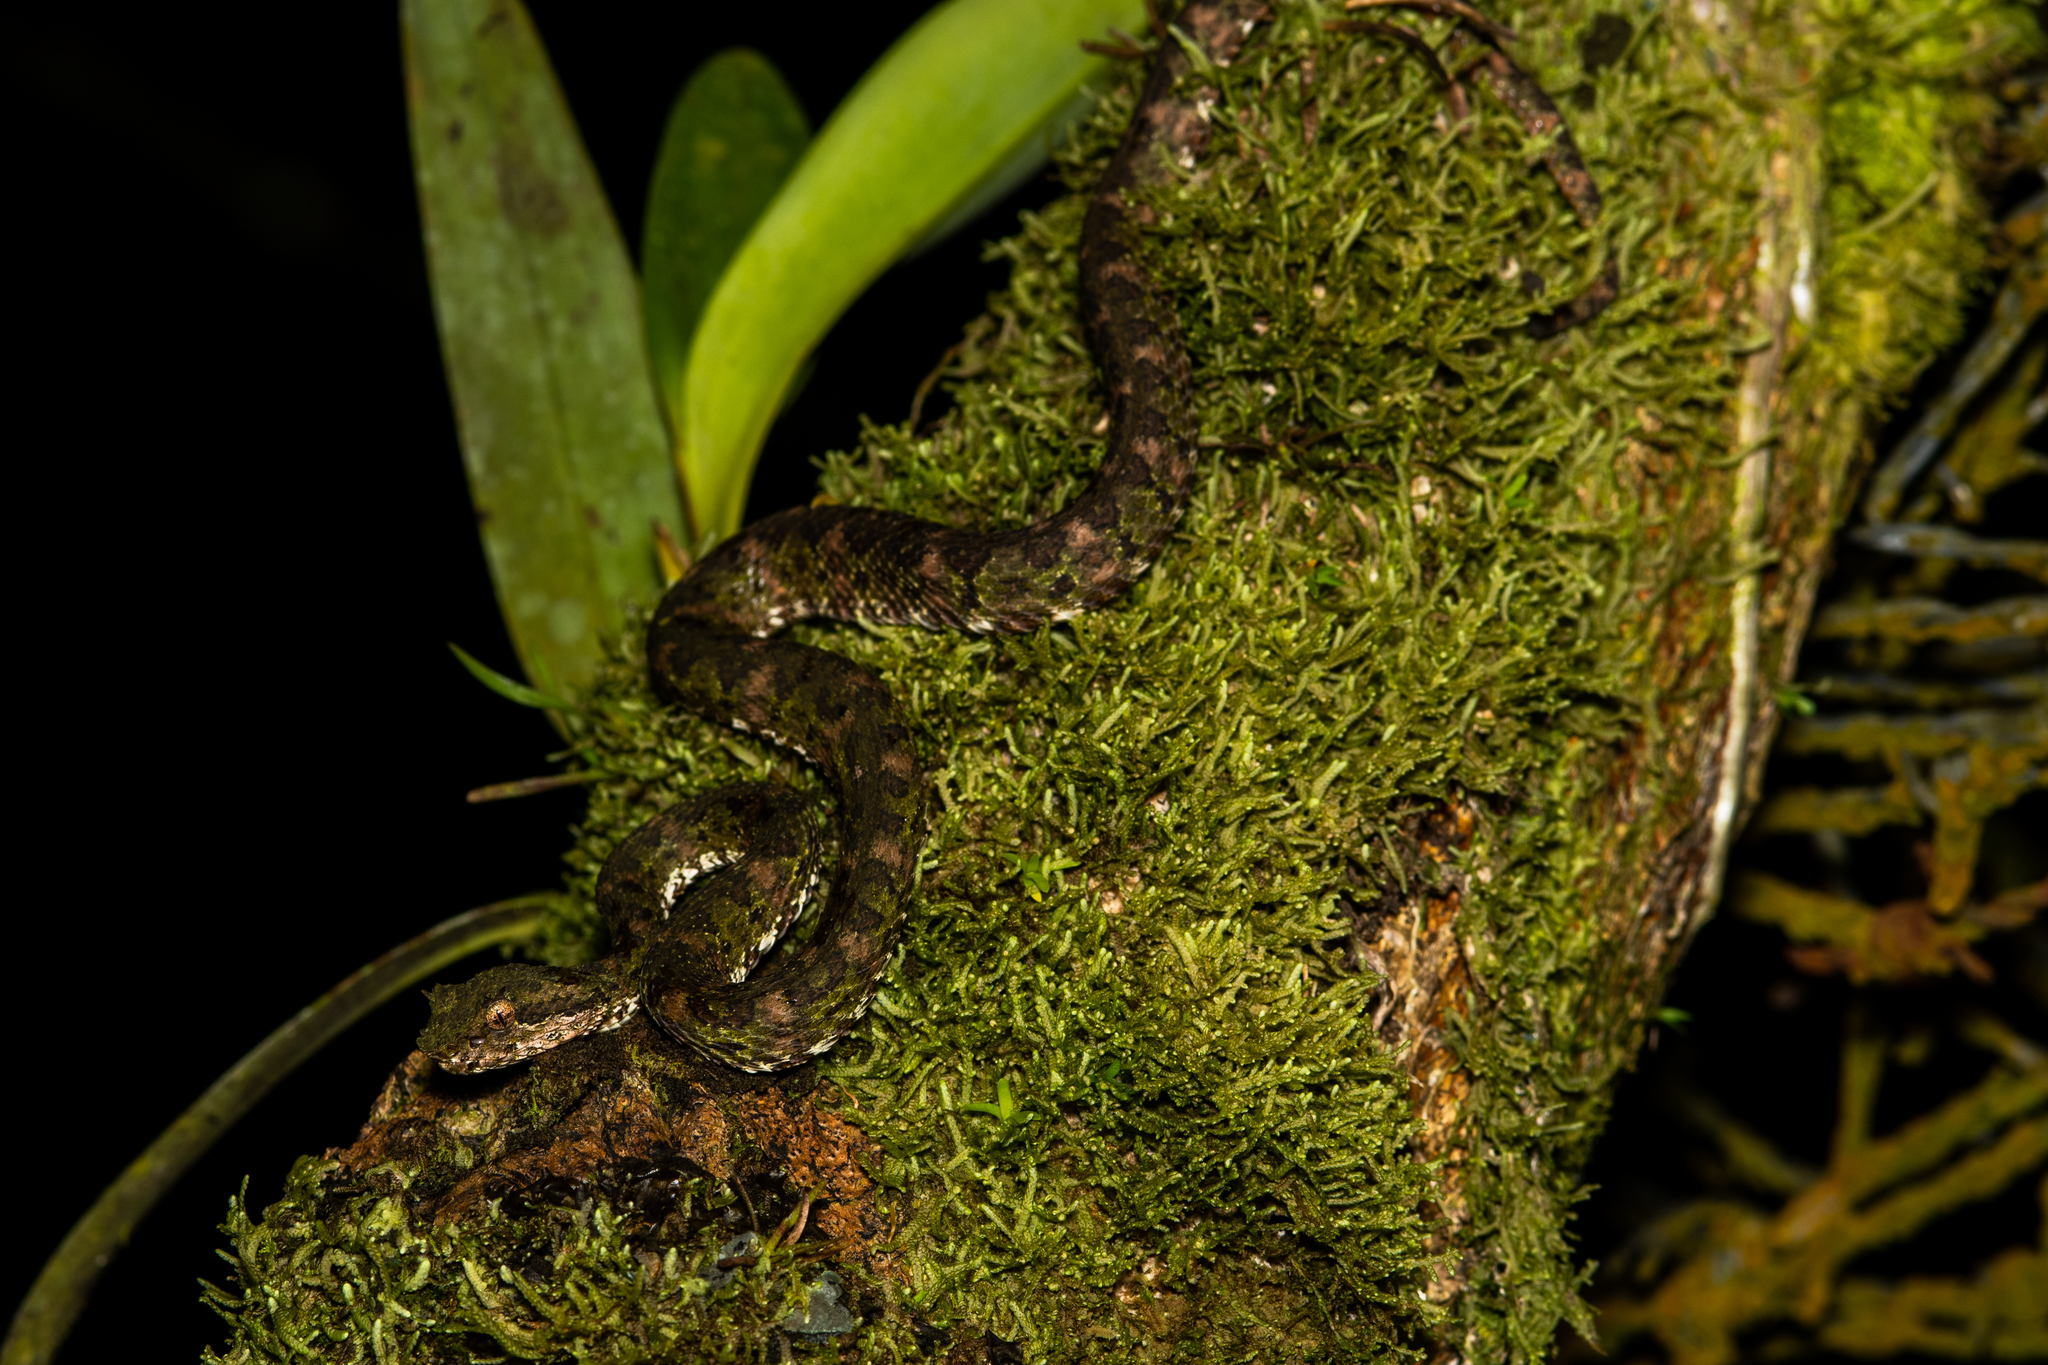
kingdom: Animalia
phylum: Chordata
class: Squamata
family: Viperidae
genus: Bothriechis
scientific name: Bothriechis schlegelii
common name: Eyelash viper
